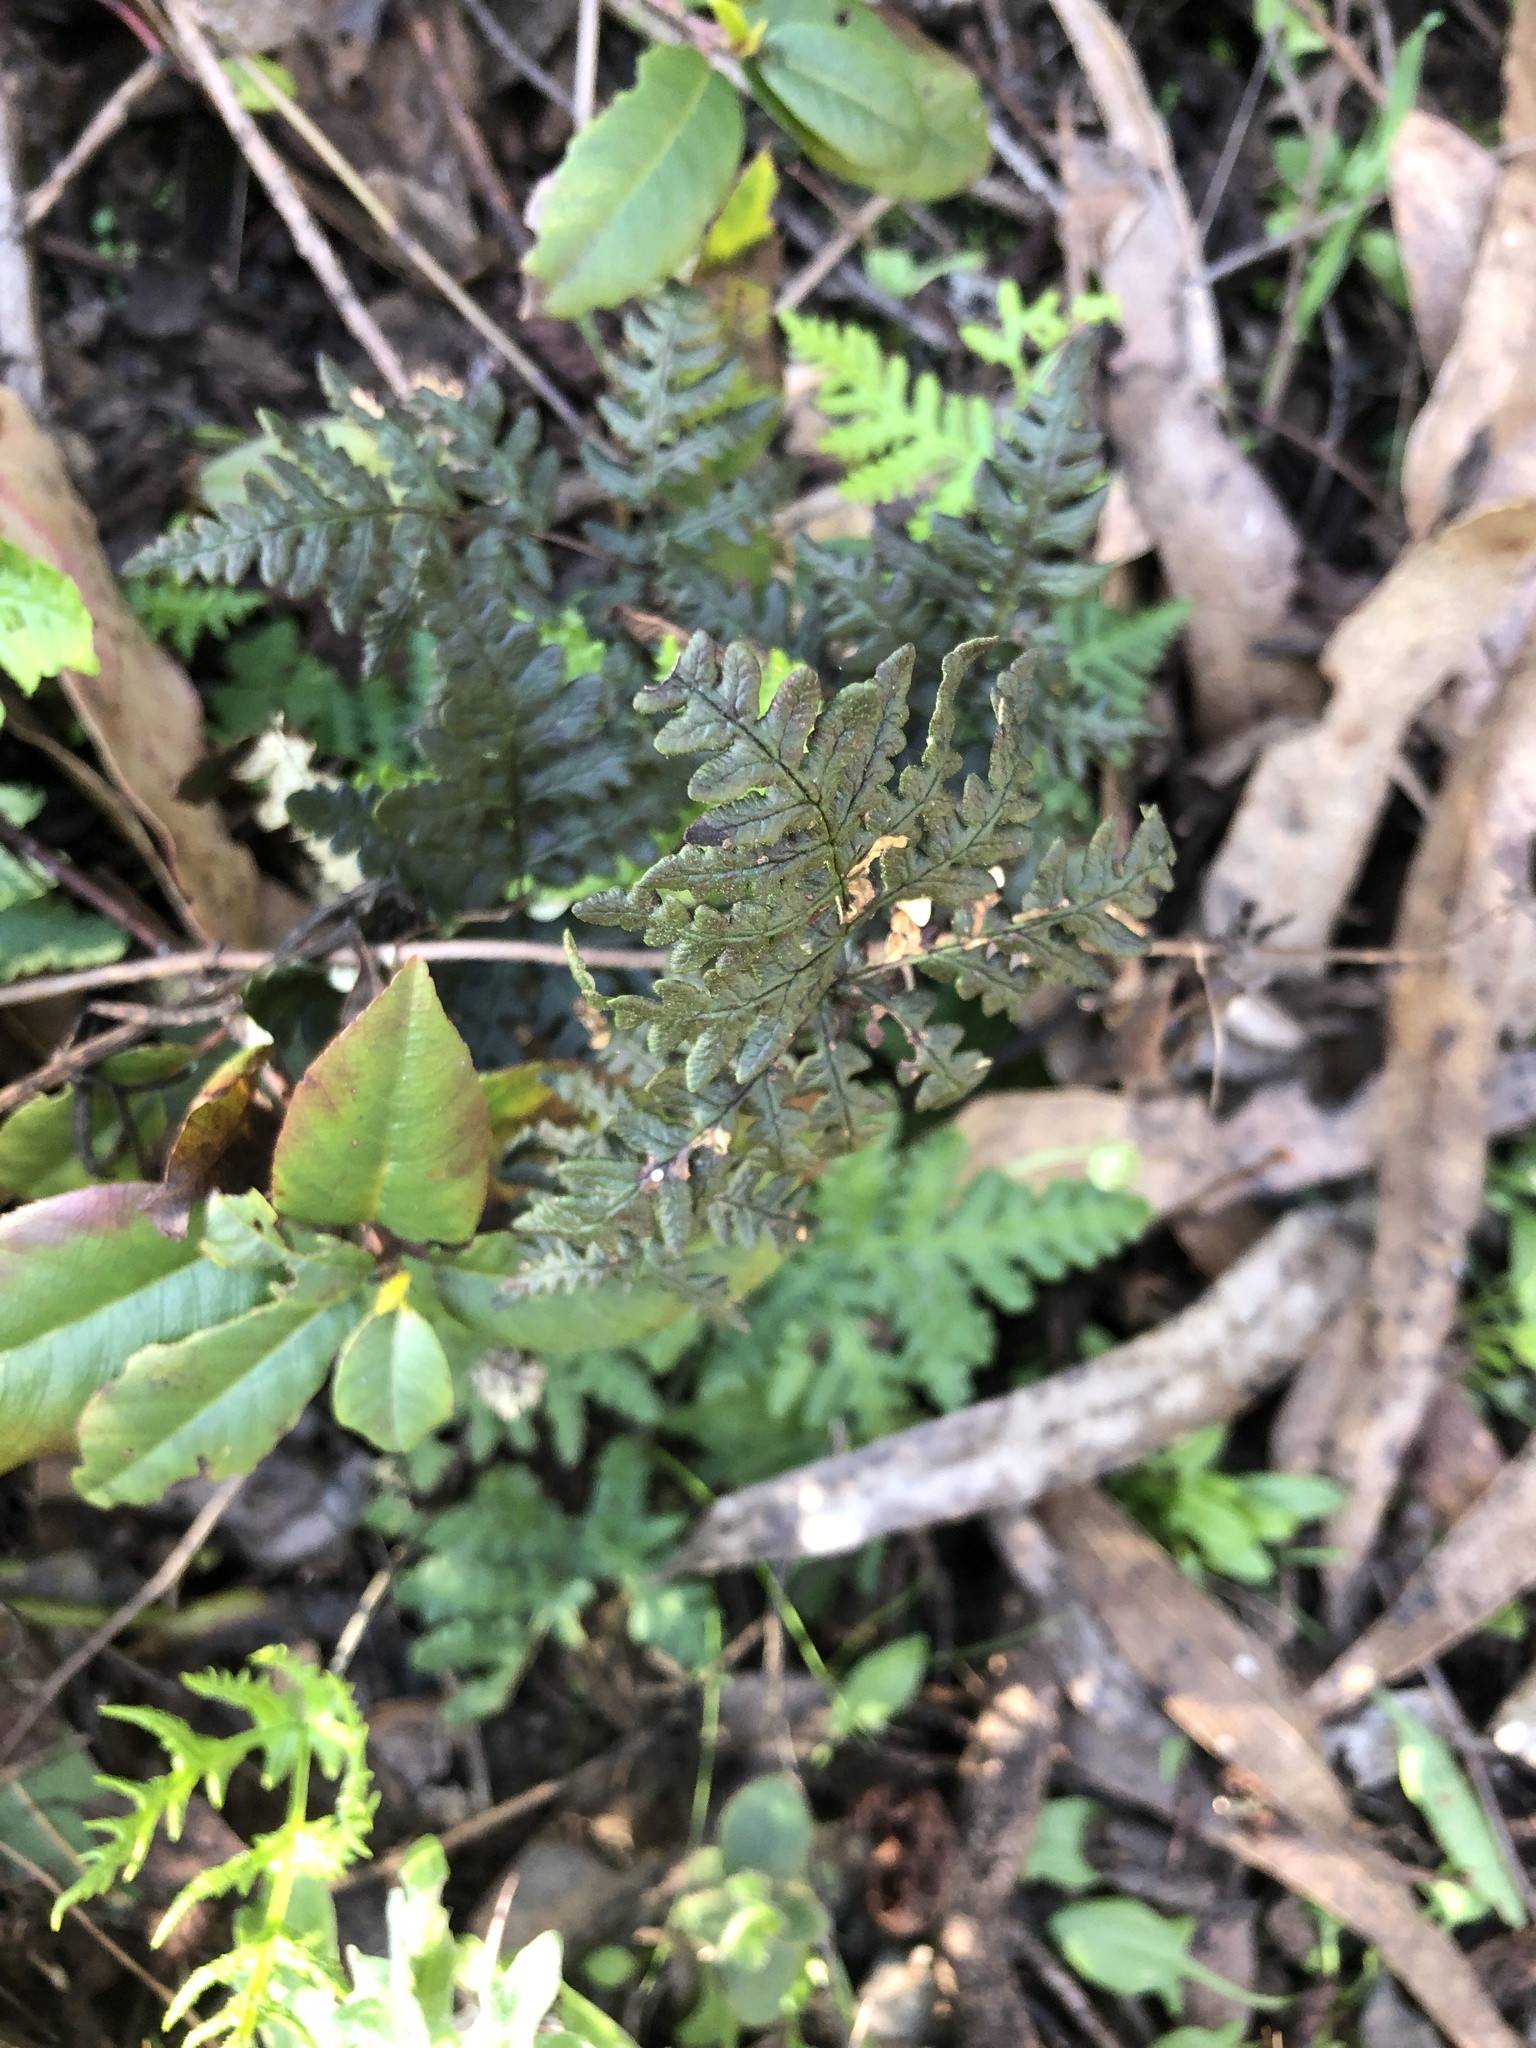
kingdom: Plantae
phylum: Tracheophyta
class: Polypodiopsida
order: Polypodiales
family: Pteridaceae
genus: Pentagramma
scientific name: Pentagramma triangularis
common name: Gold fern
